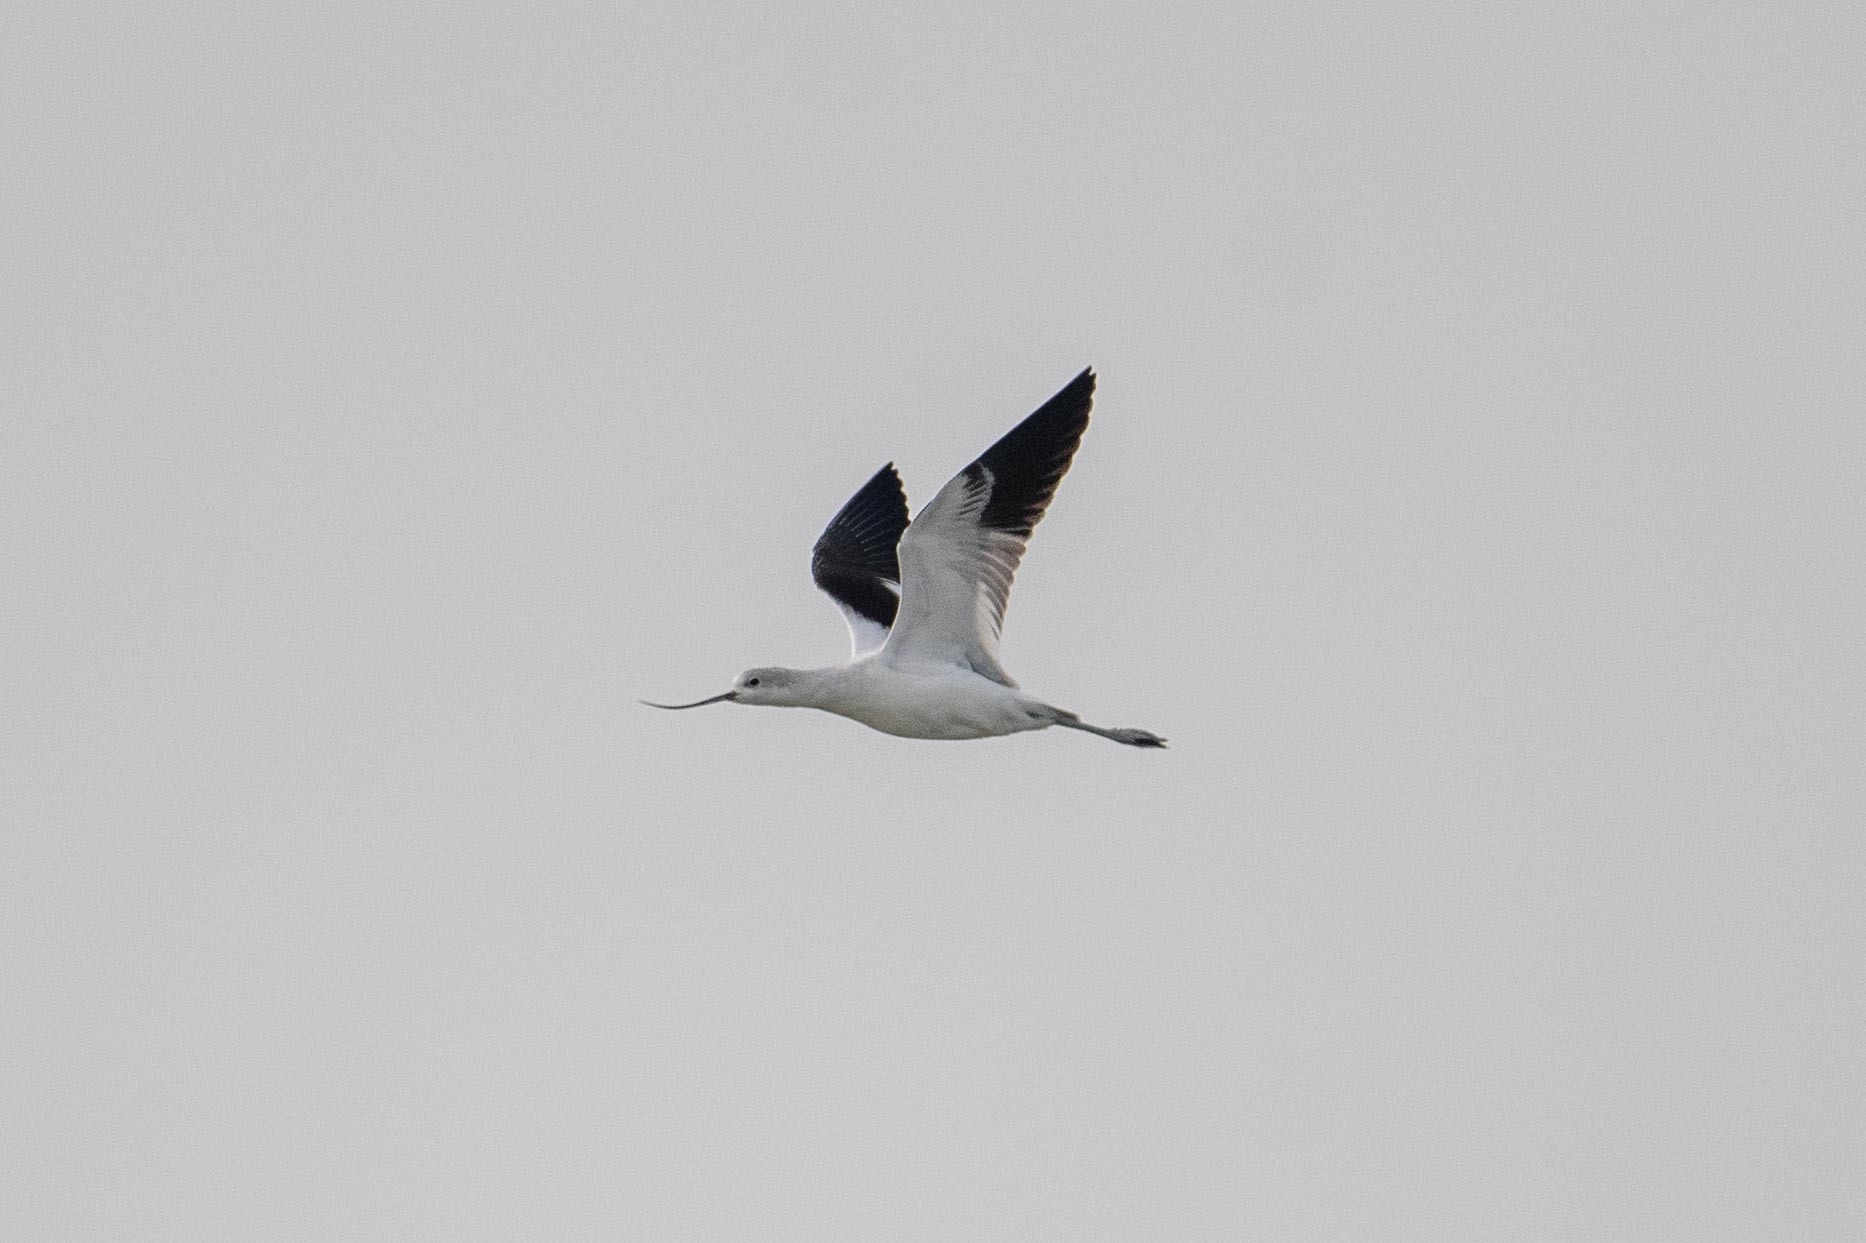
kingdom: Animalia
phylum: Chordata
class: Aves
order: Charadriiformes
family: Recurvirostridae
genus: Recurvirostra
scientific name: Recurvirostra americana
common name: American avocet
